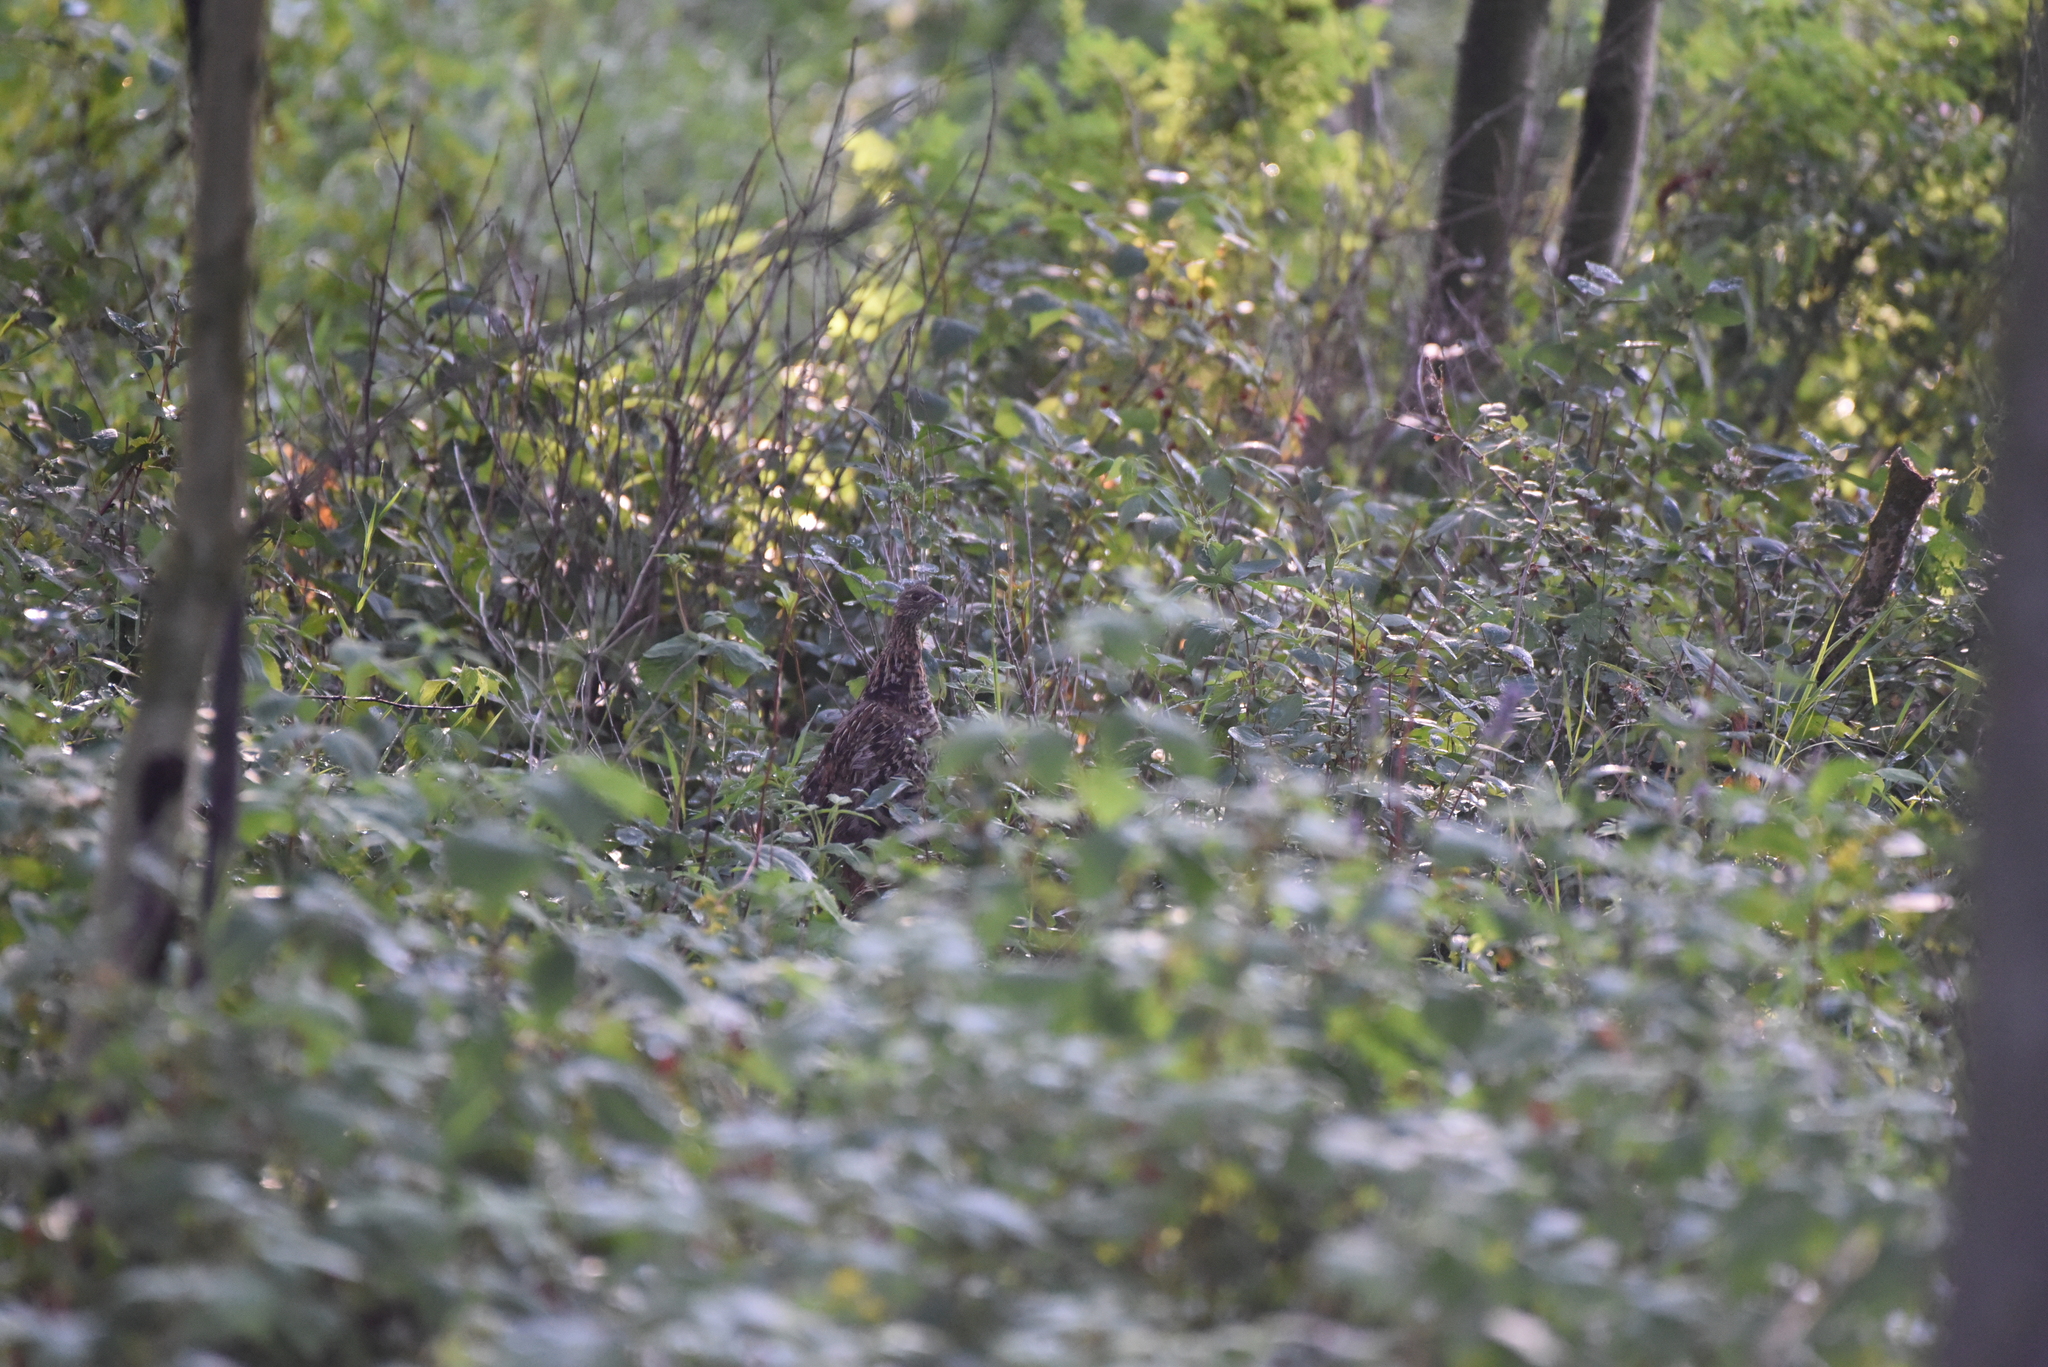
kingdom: Animalia
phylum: Chordata
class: Aves
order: Galliformes
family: Phasianidae
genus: Bonasa
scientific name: Bonasa umbellus
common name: Ruffed grouse
